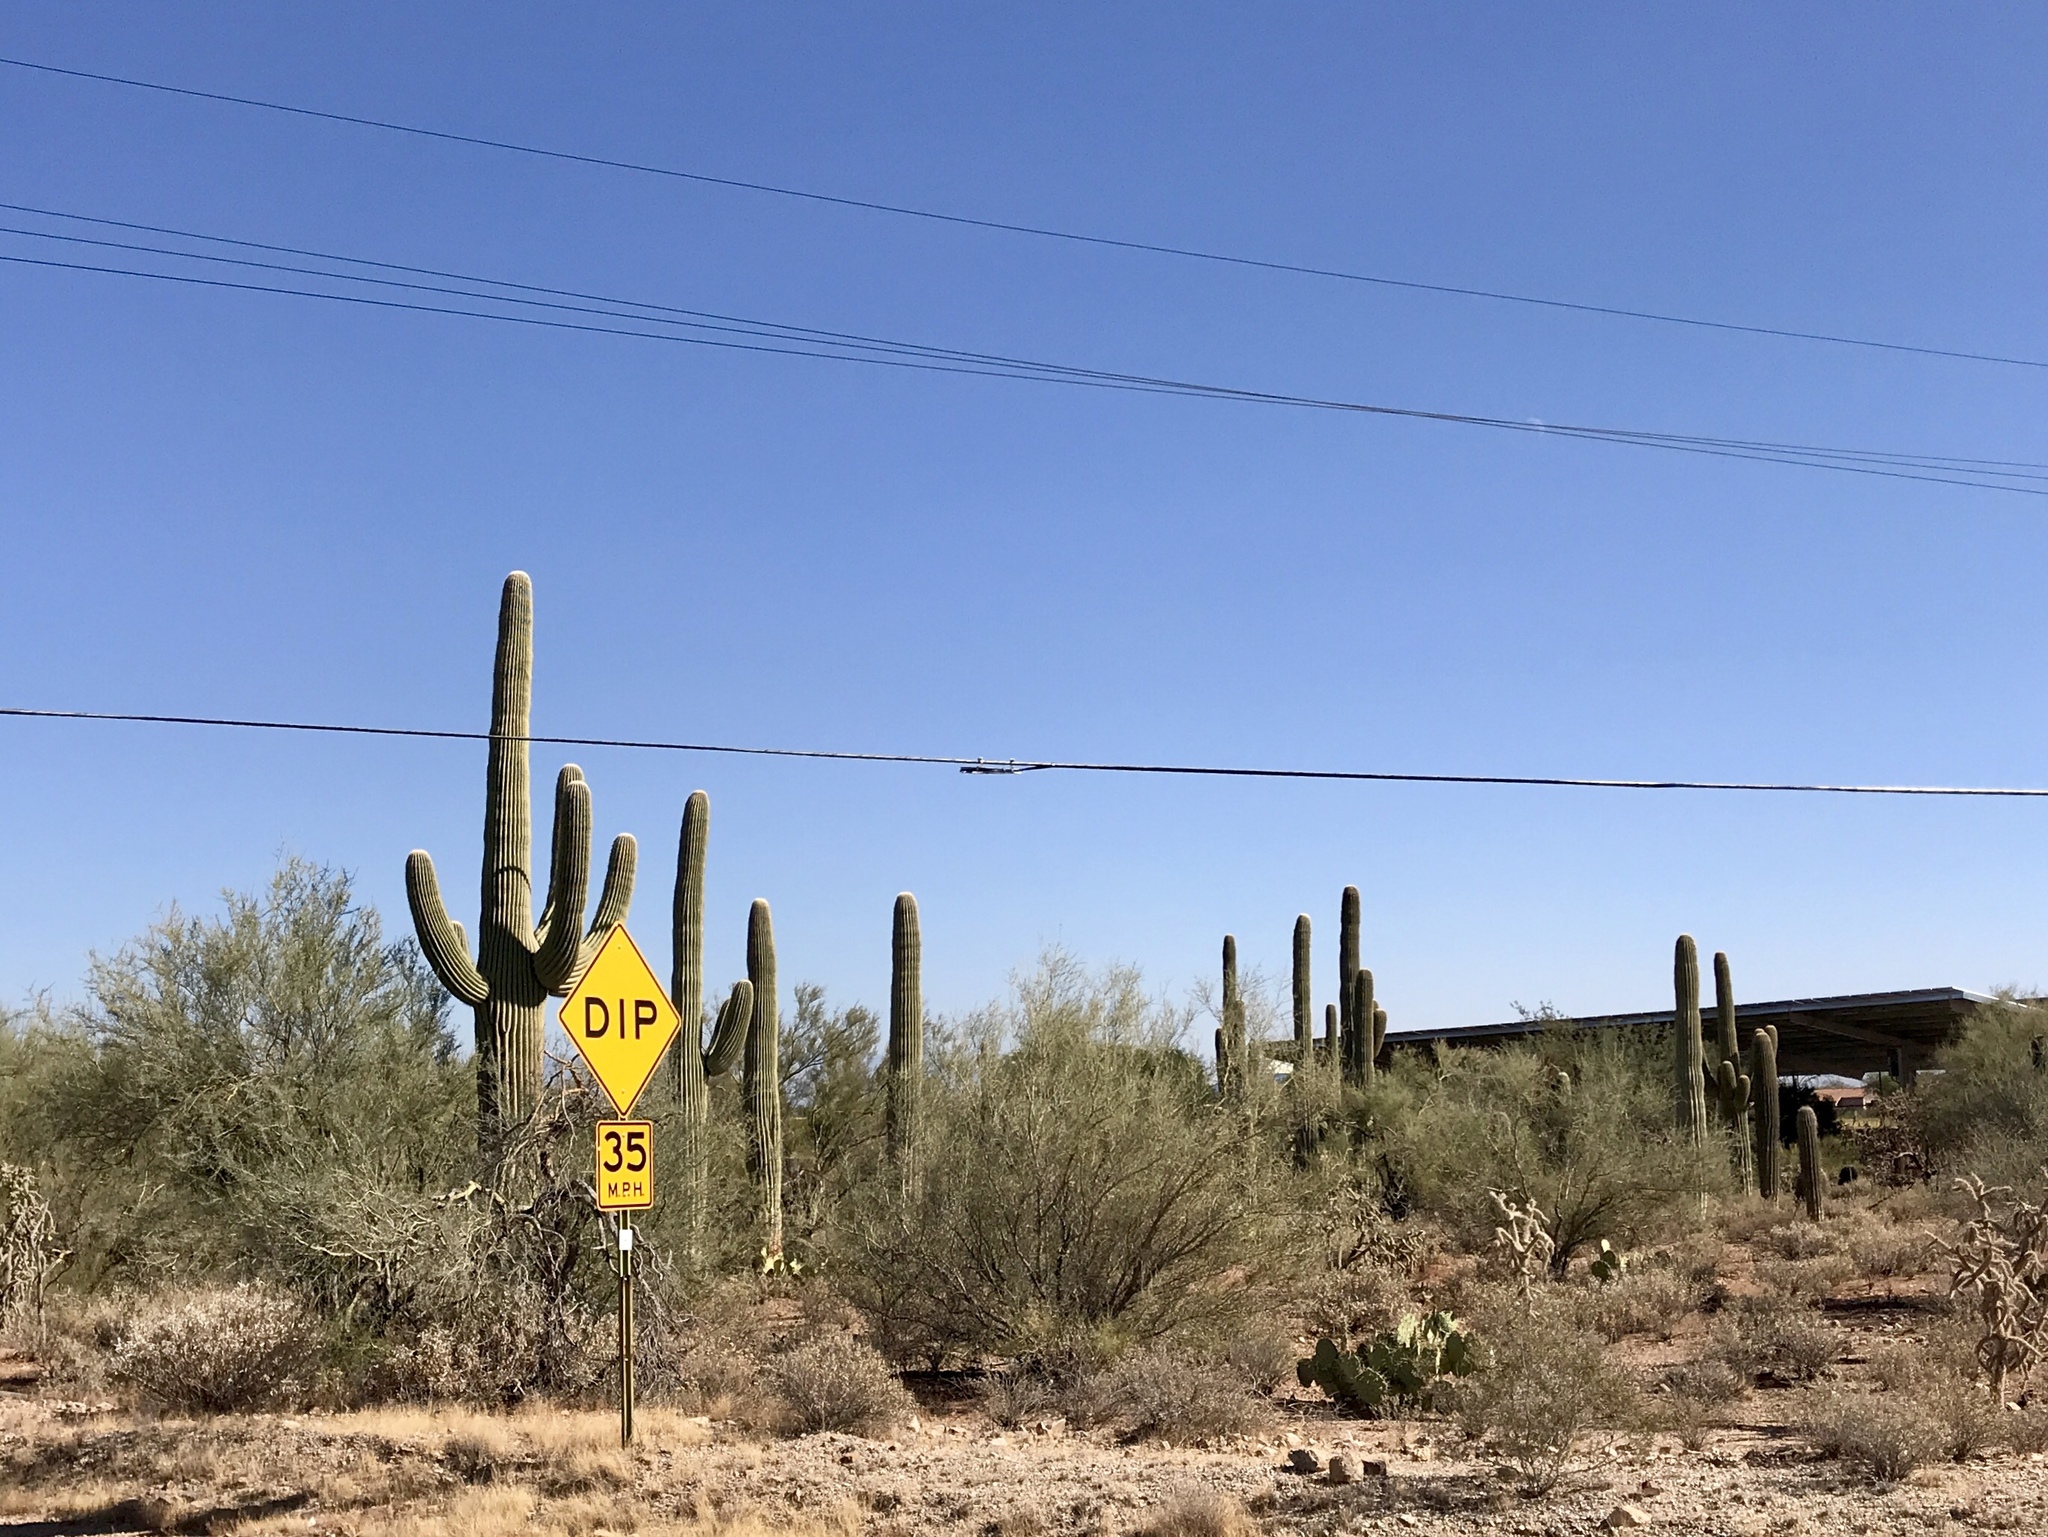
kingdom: Plantae
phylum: Tracheophyta
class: Magnoliopsida
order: Caryophyllales
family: Cactaceae
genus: Carnegiea
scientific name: Carnegiea gigantea
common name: Saguaro
